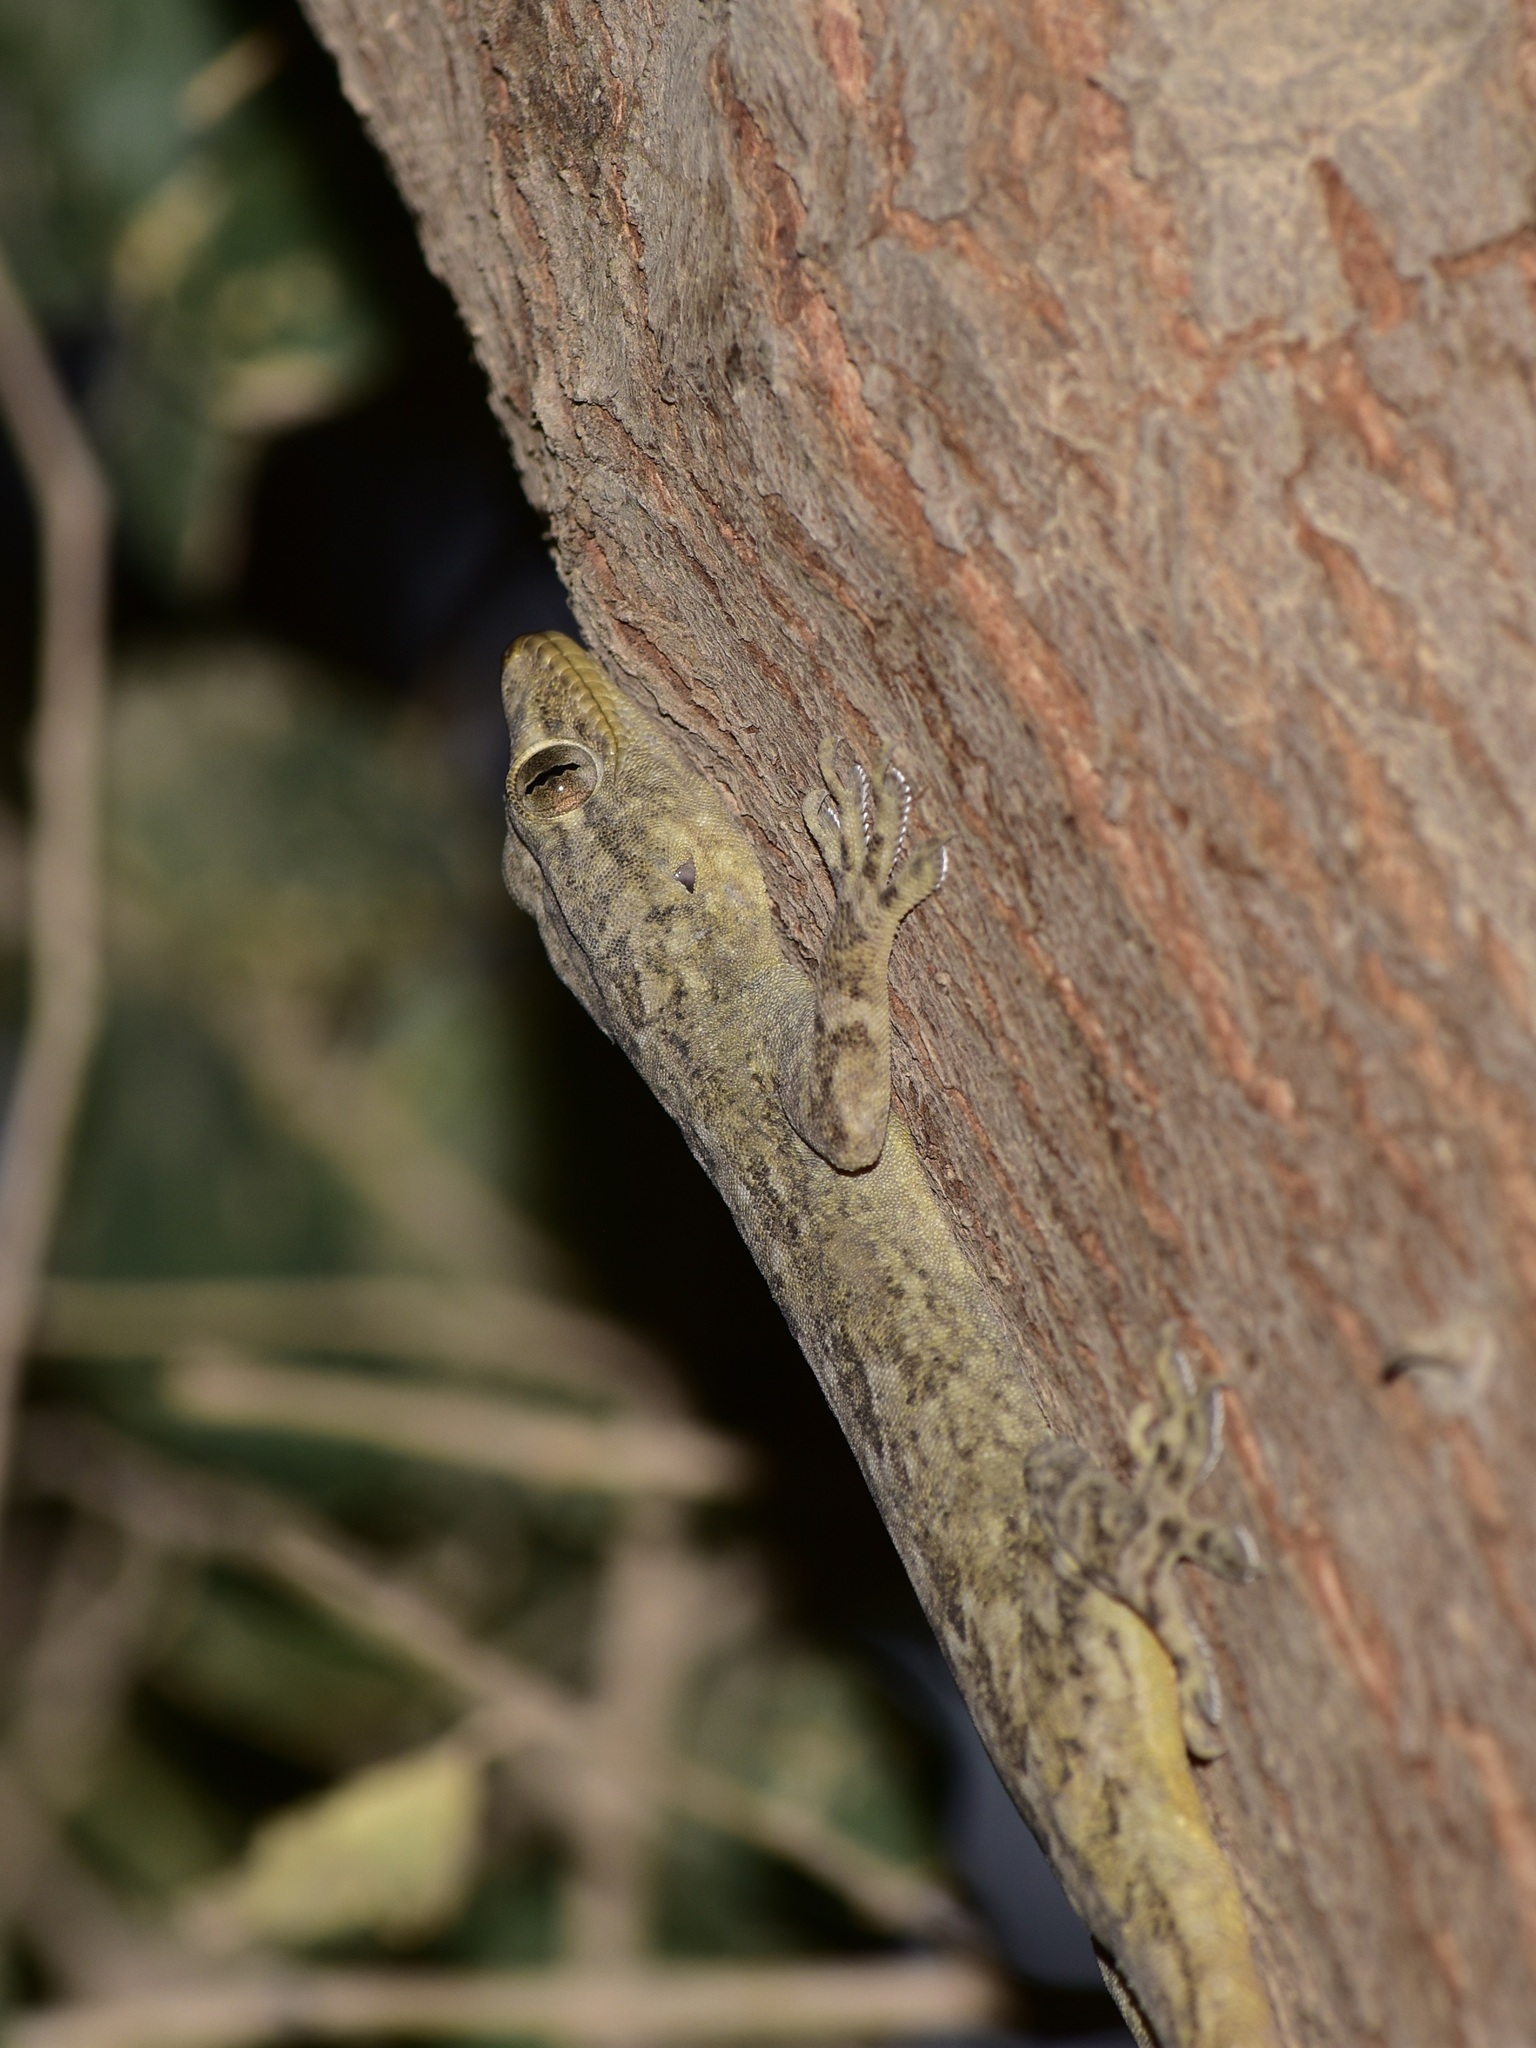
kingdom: Animalia
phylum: Chordata
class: Squamata
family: Gekkonidae
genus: Hemidactylus
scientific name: Hemidactylus flaviviridis
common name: Northern house gecko
